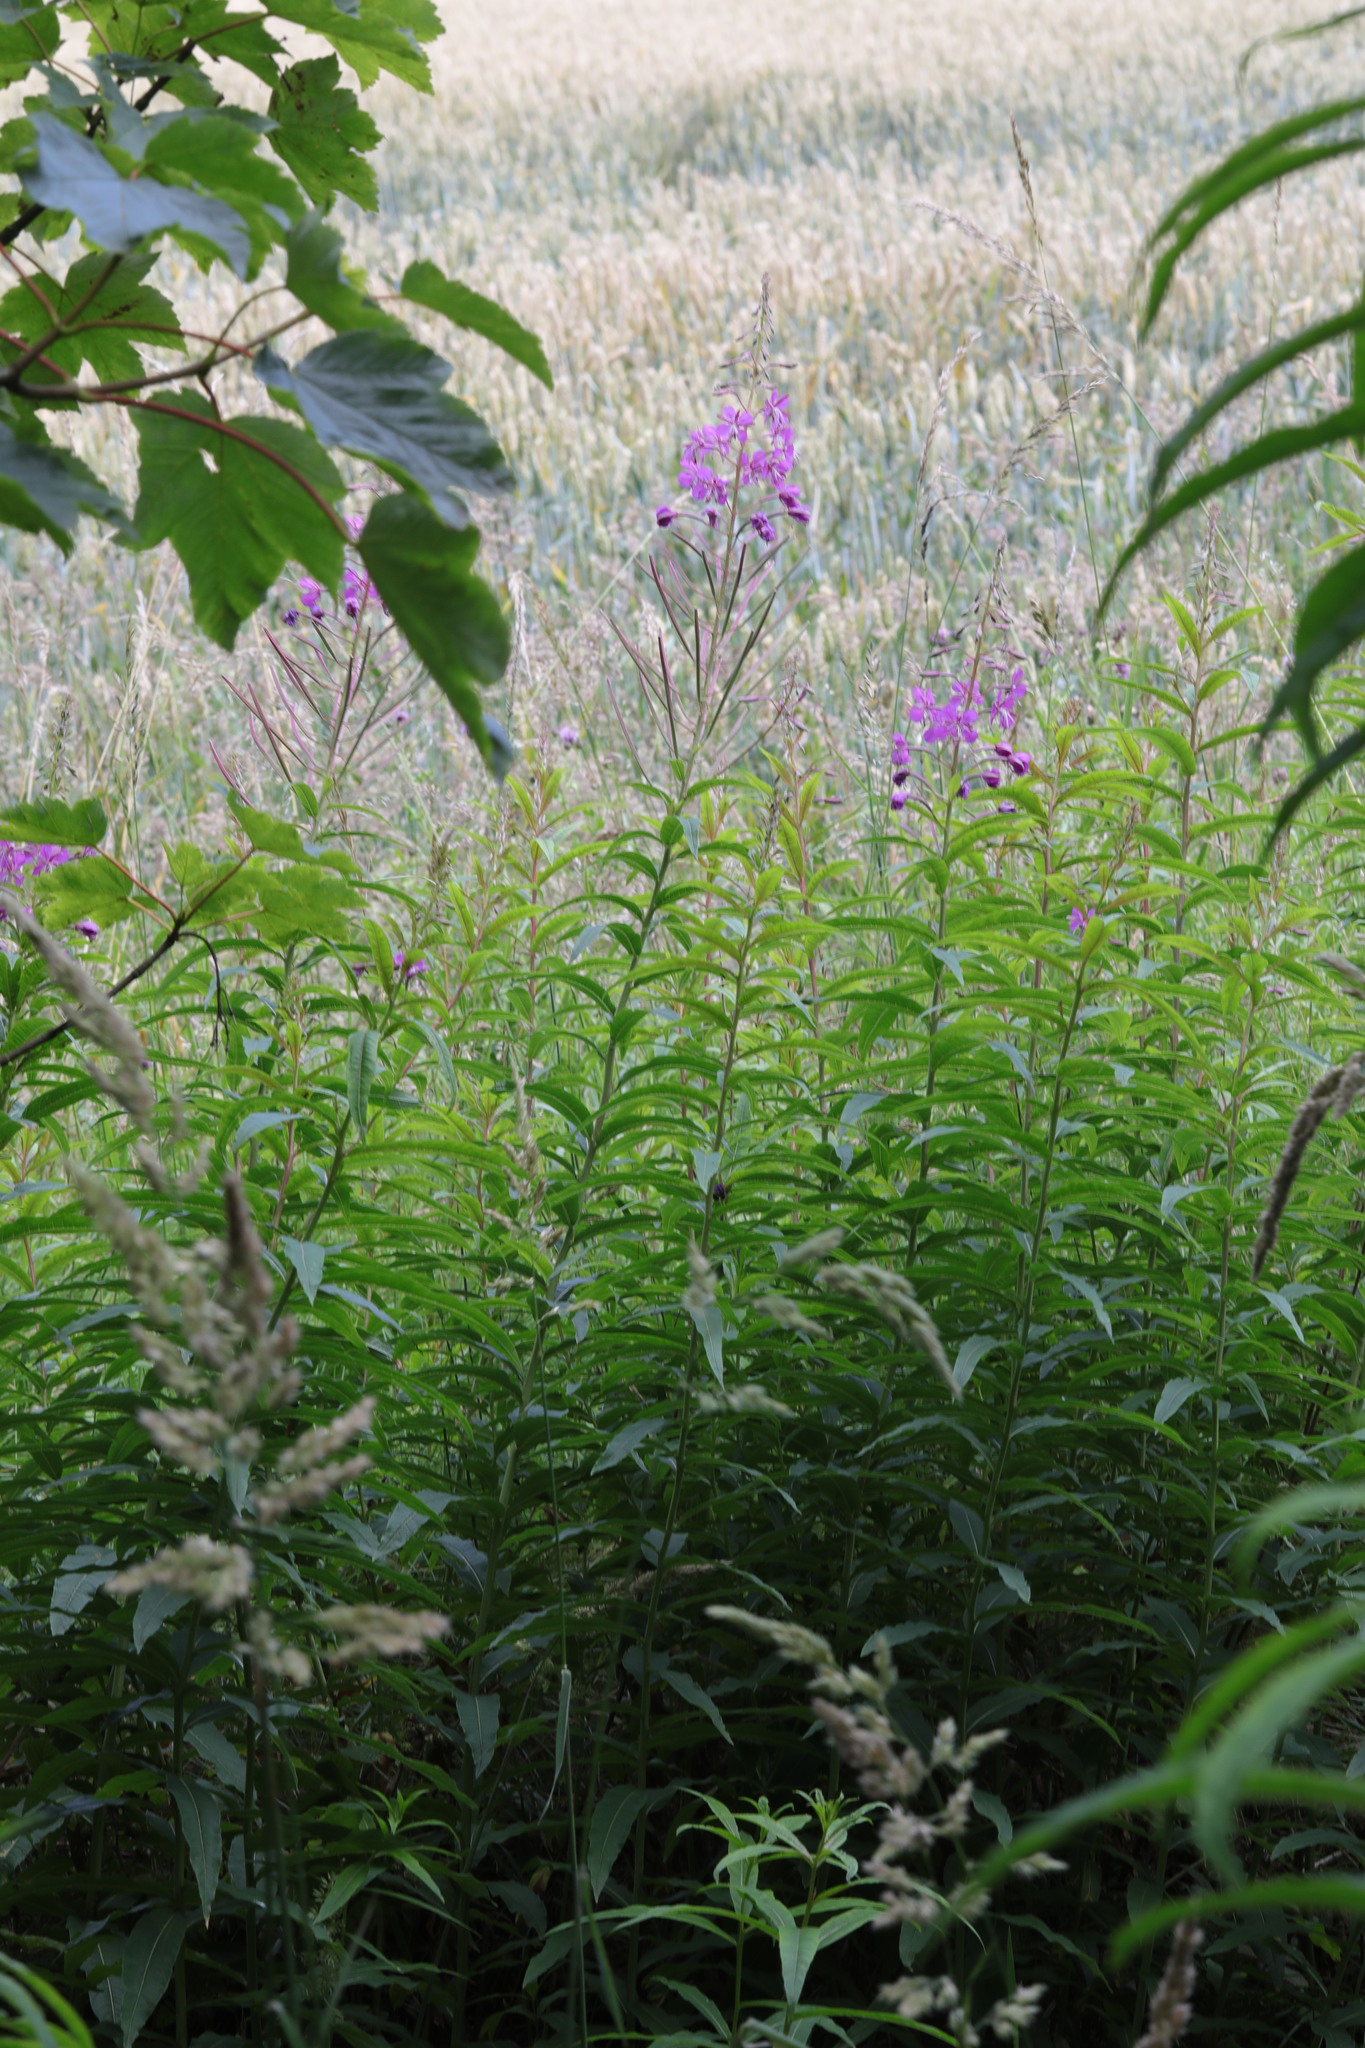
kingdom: Plantae
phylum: Tracheophyta
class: Magnoliopsida
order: Myrtales
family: Onagraceae
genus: Chamaenerion
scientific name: Chamaenerion angustifolium
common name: Fireweed
